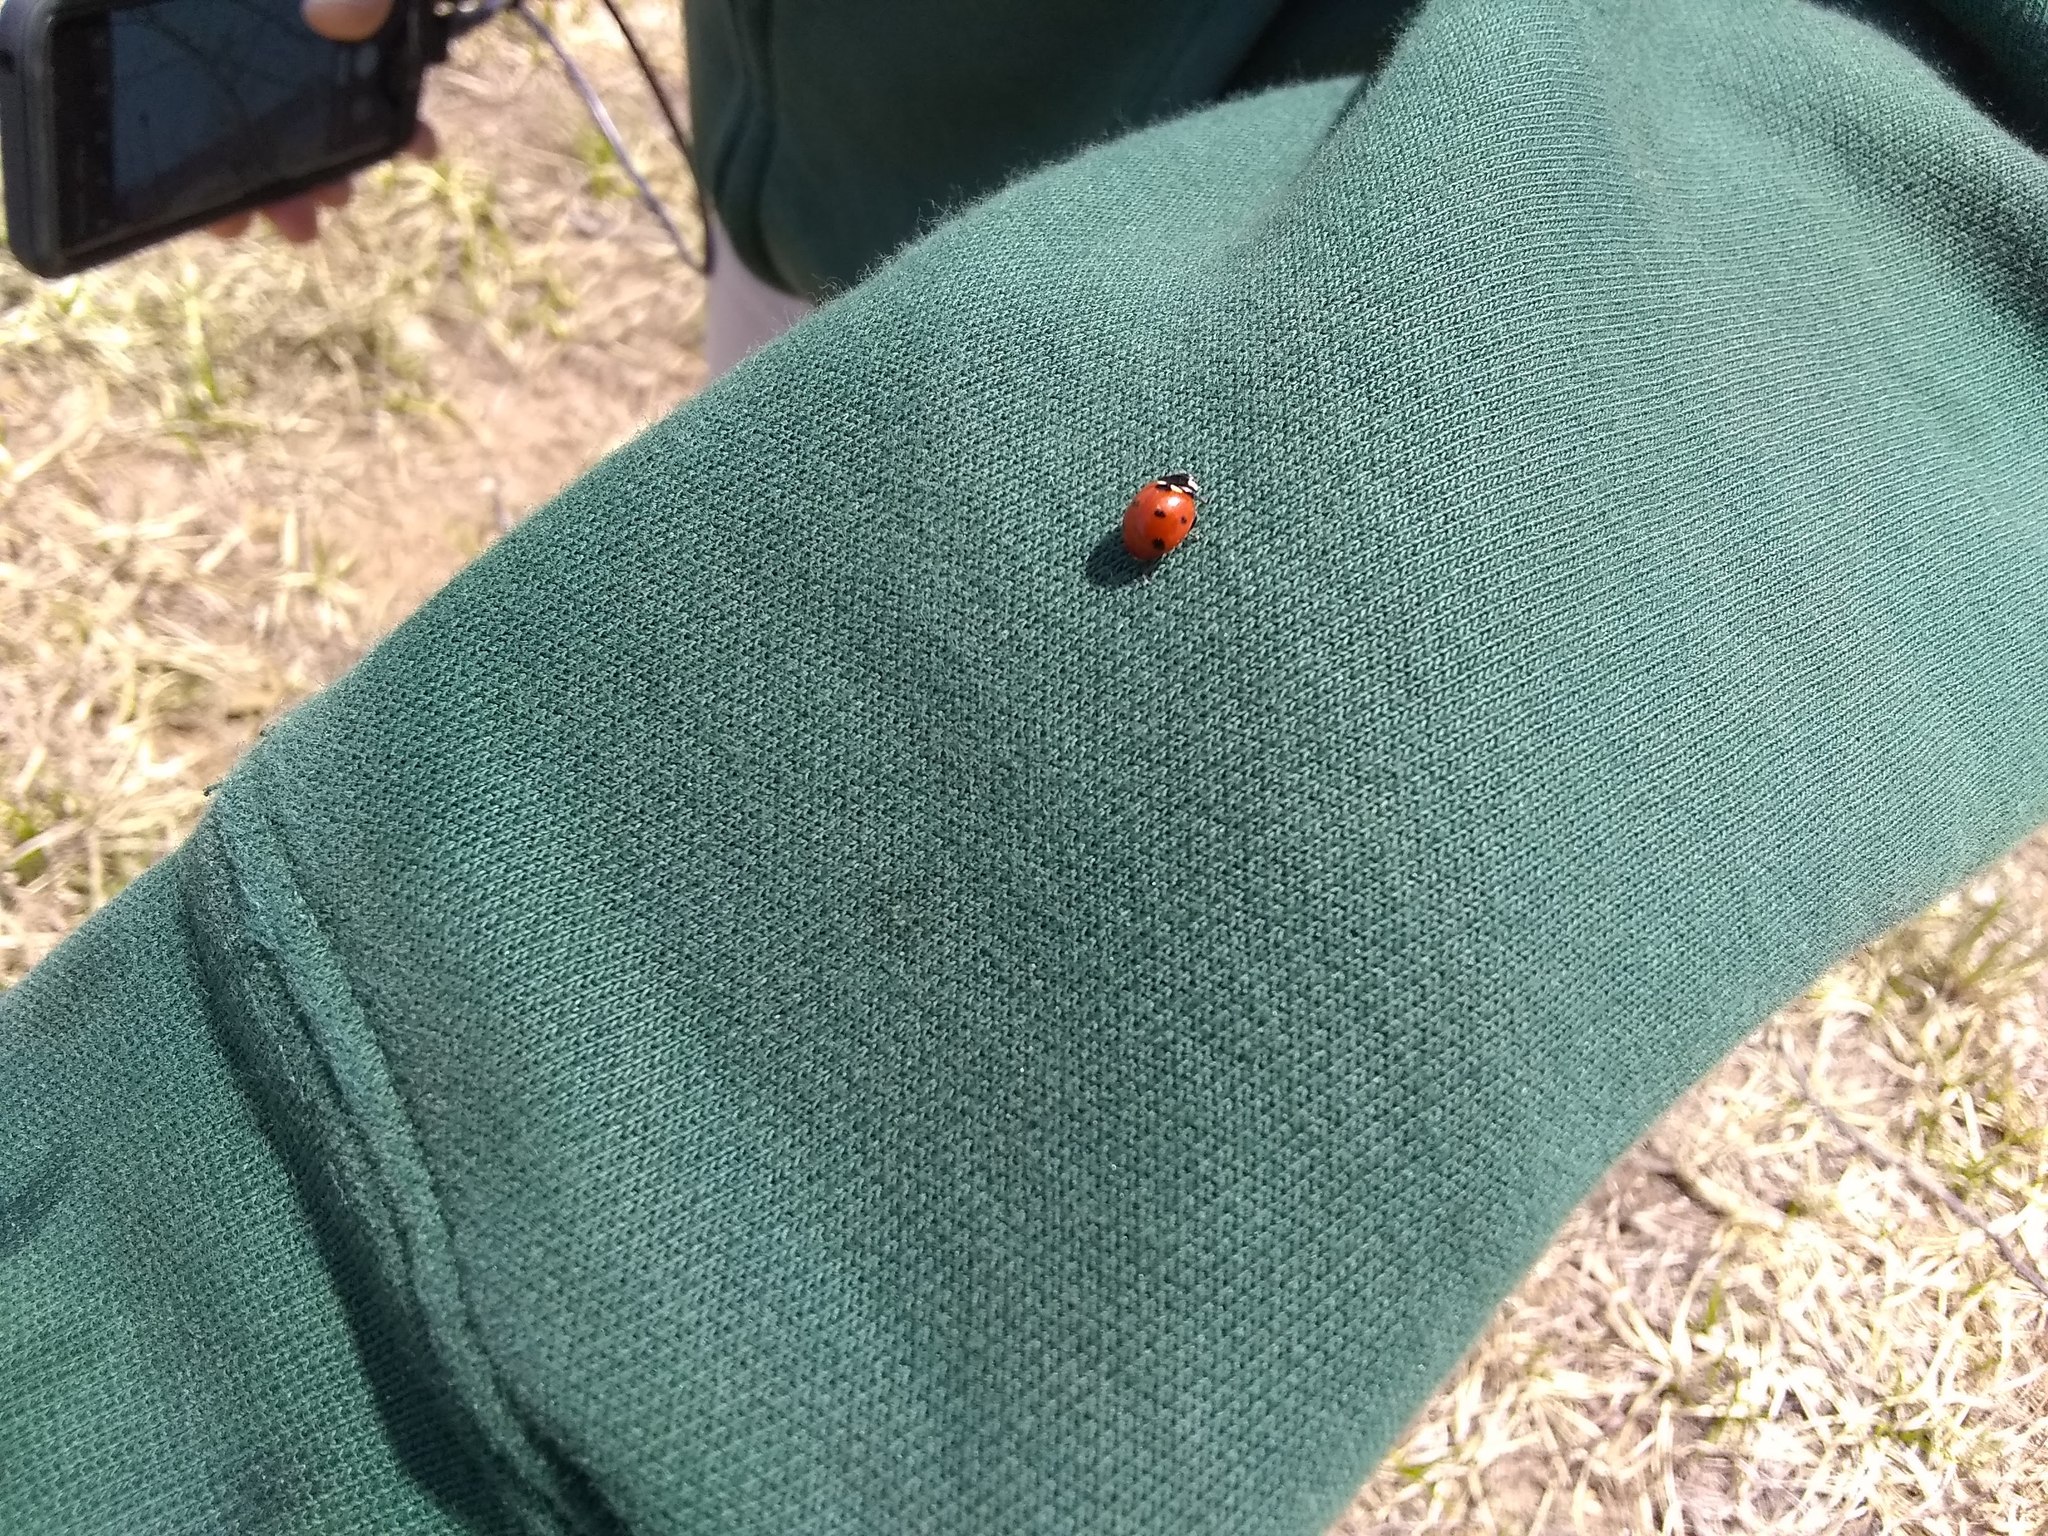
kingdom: Animalia
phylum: Arthropoda
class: Insecta
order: Coleoptera
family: Coccinellidae
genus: Coccinella
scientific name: Coccinella septempunctata
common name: Sevenspotted lady beetle
